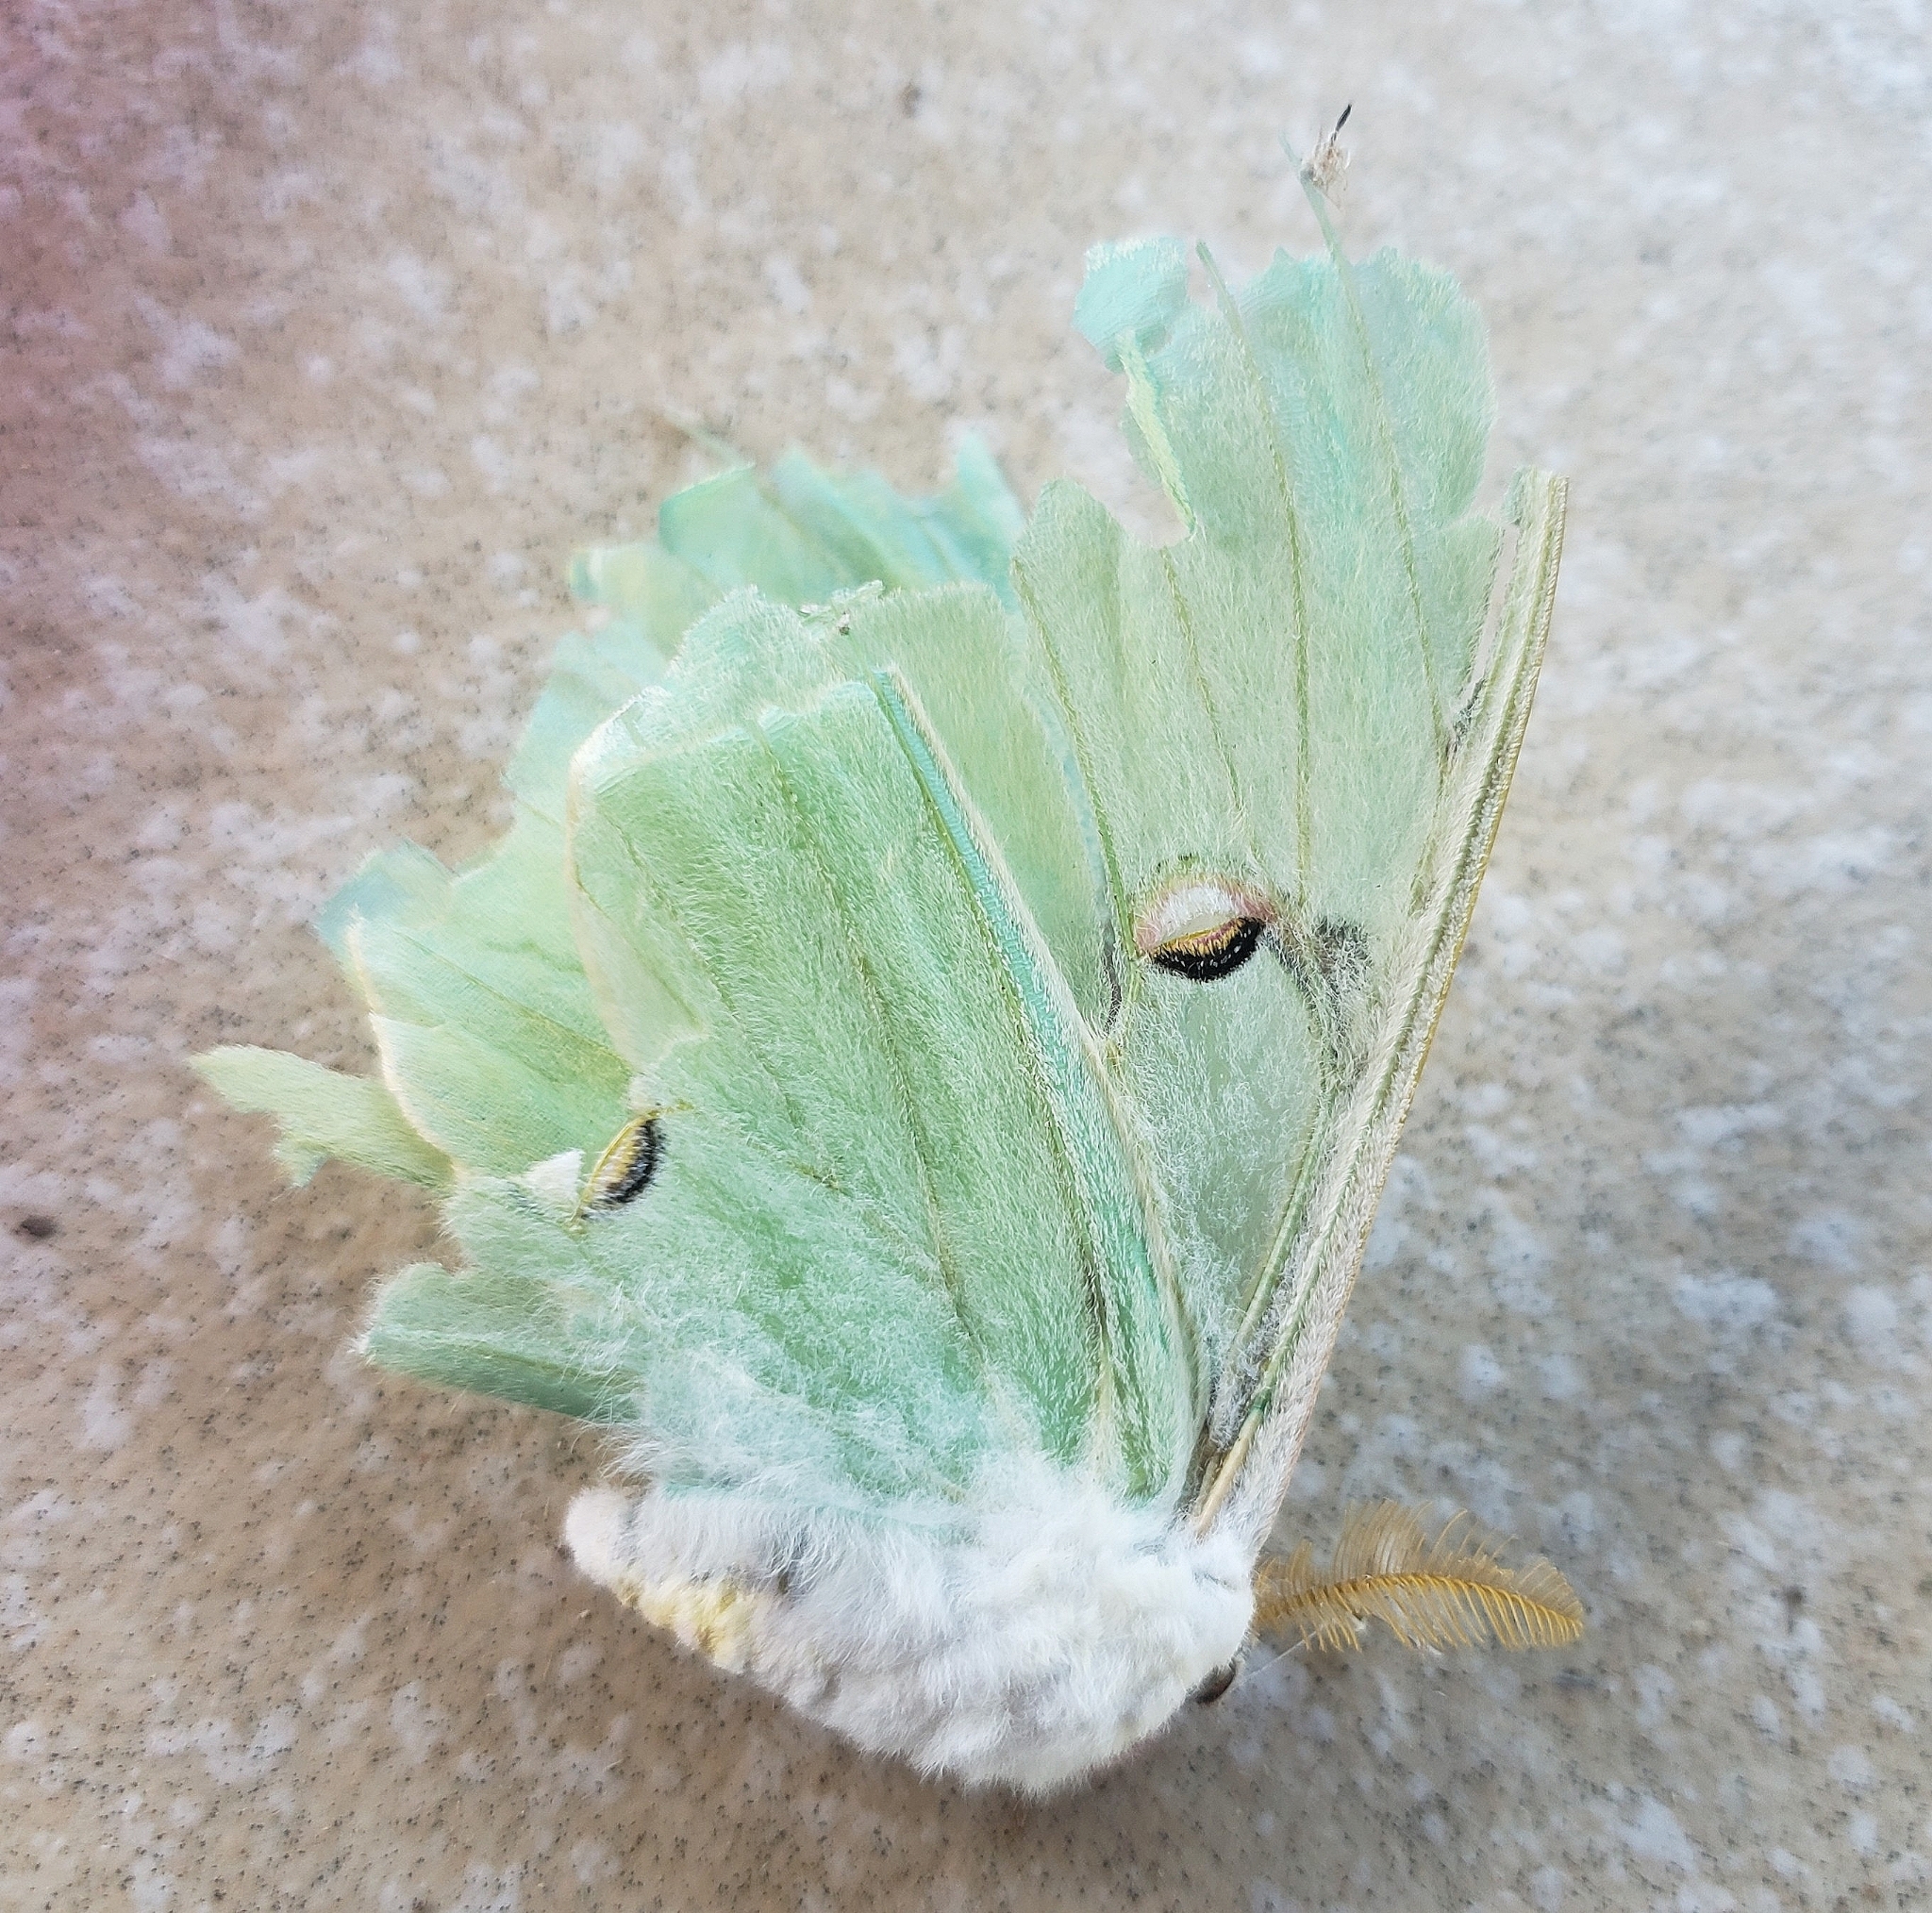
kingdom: Animalia
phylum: Arthropoda
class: Insecta
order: Lepidoptera
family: Saturniidae
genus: Actias
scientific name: Actias luna
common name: Luna moth
